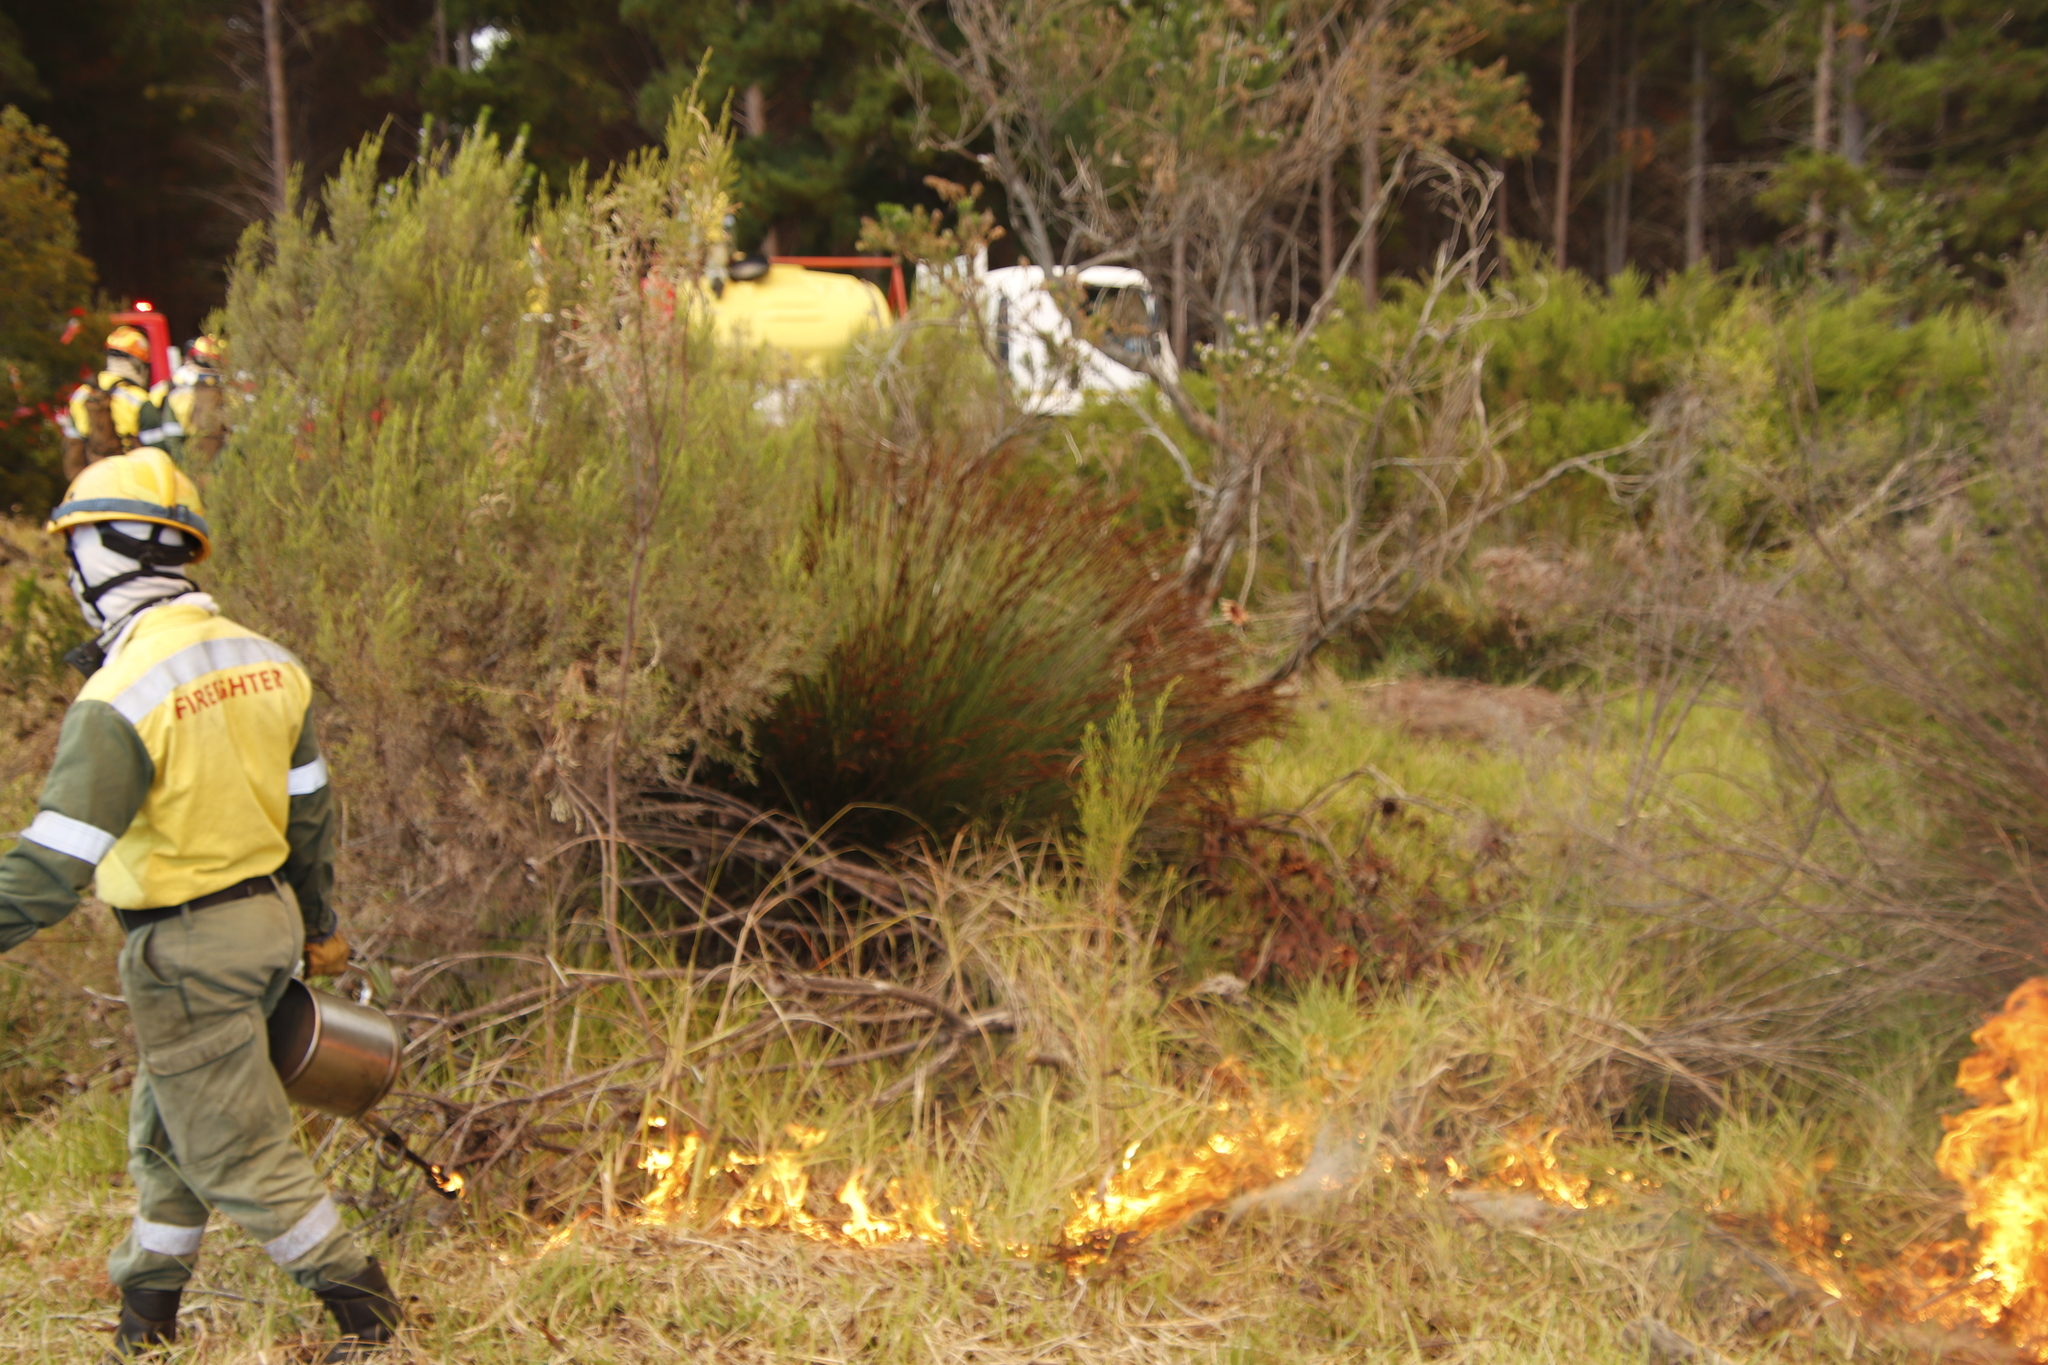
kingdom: Plantae
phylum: Tracheophyta
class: Liliopsida
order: Poales
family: Restionaceae
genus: Elegia
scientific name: Elegia tectorum
